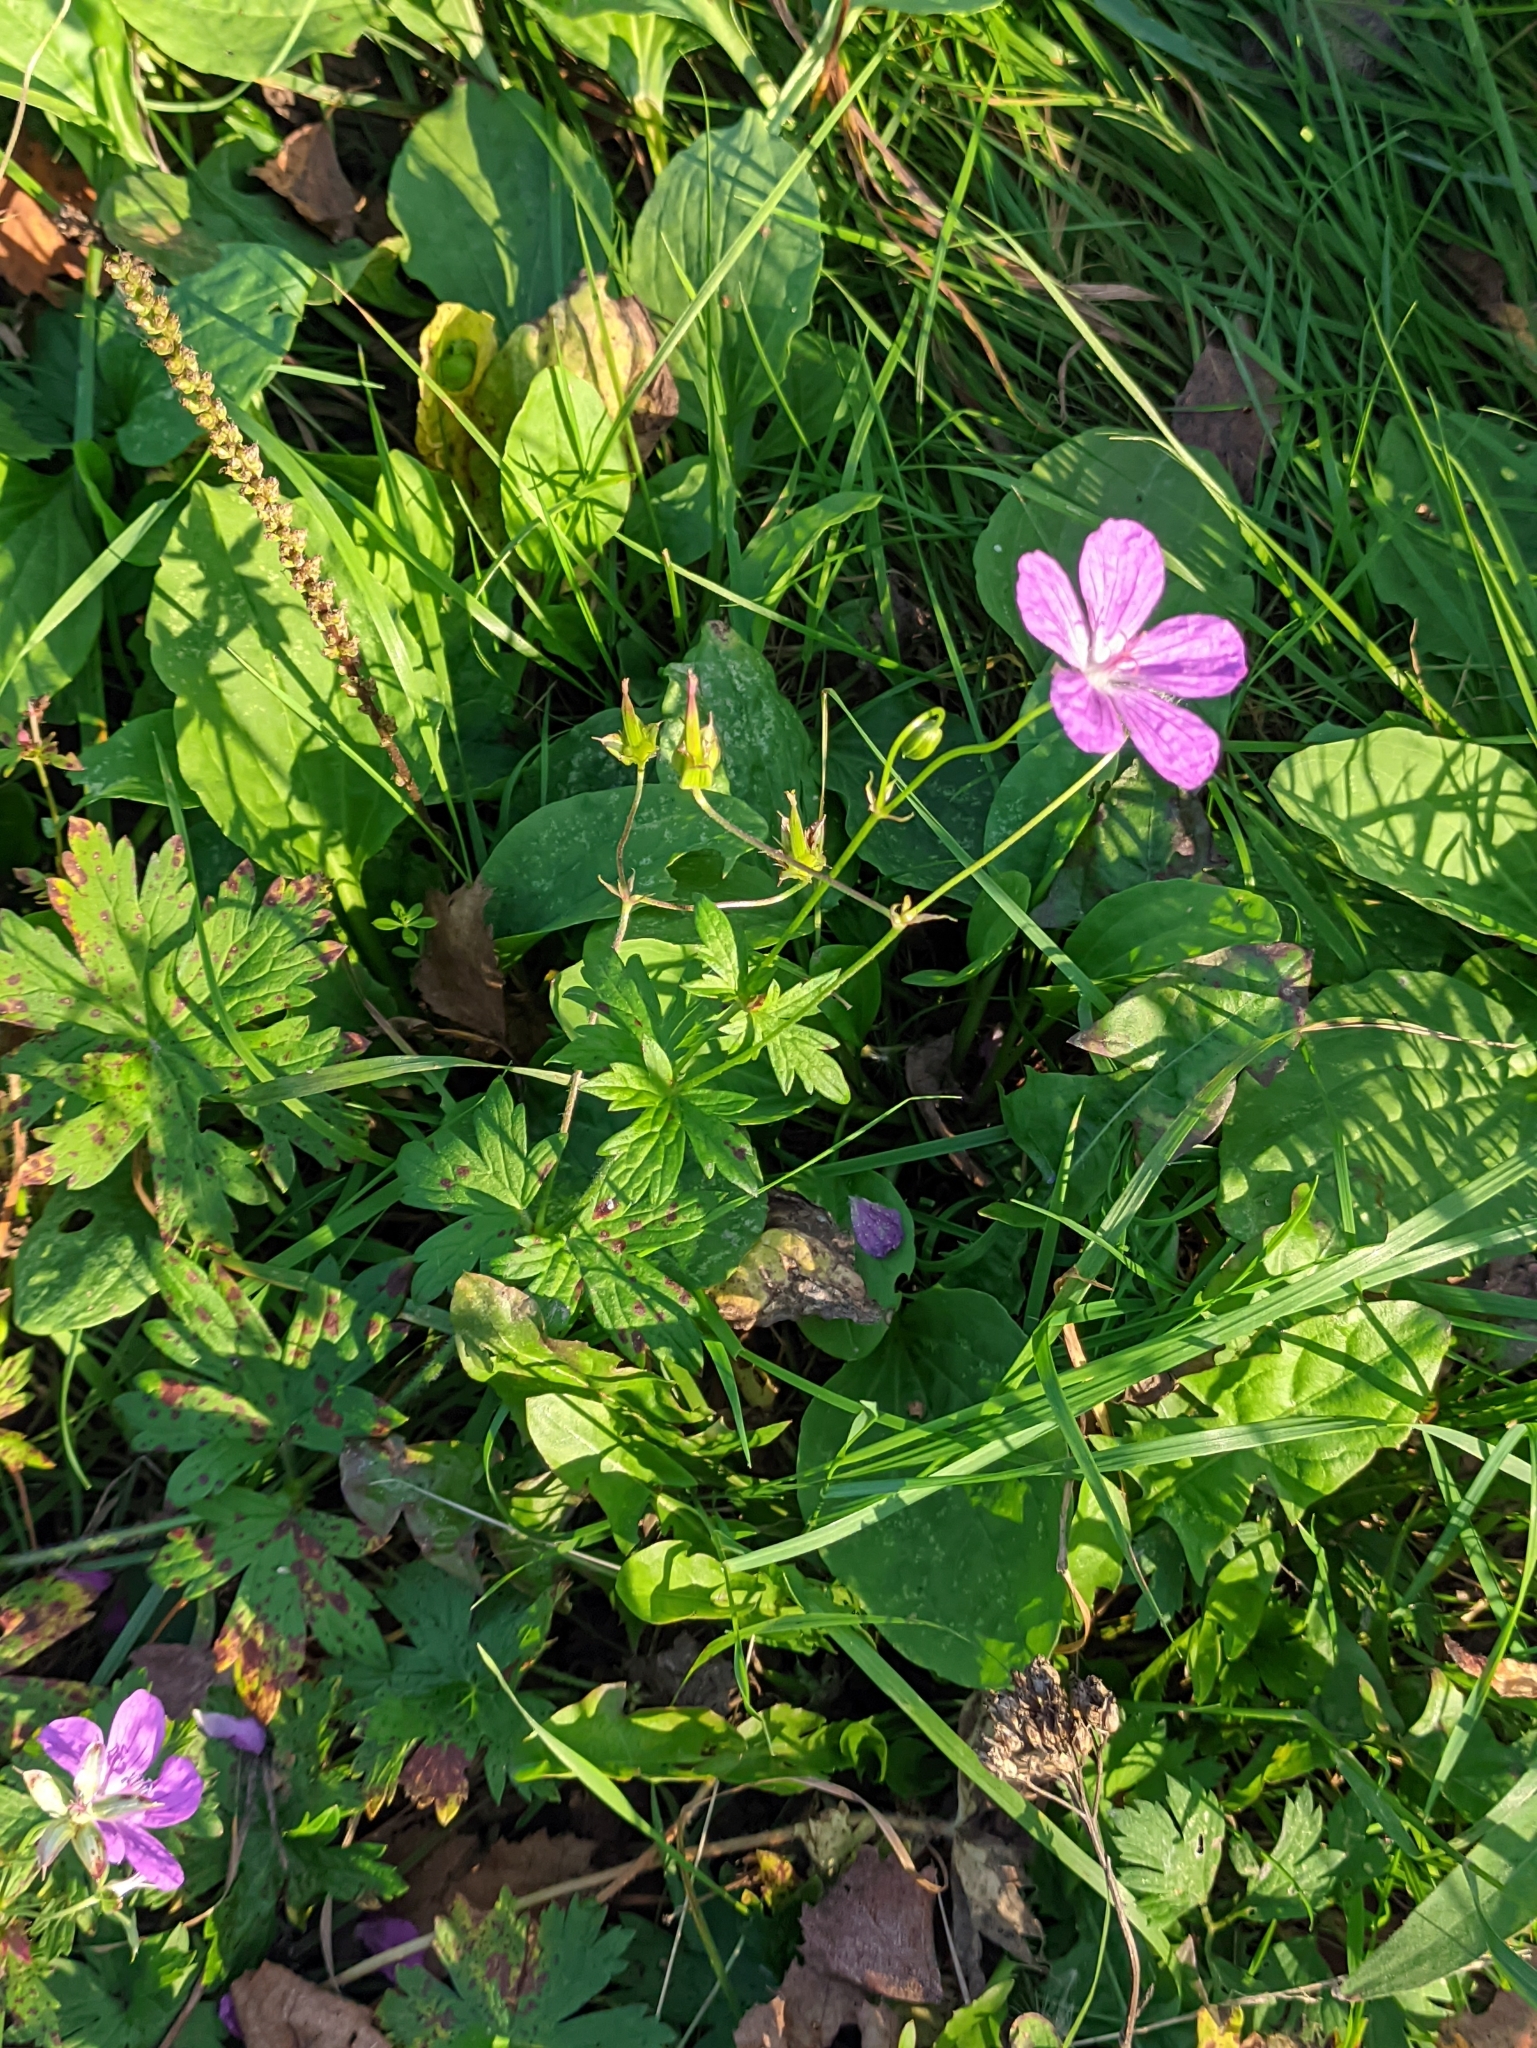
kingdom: Plantae
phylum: Tracheophyta
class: Magnoliopsida
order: Geraniales
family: Geraniaceae
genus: Geranium
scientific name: Geranium palustre
